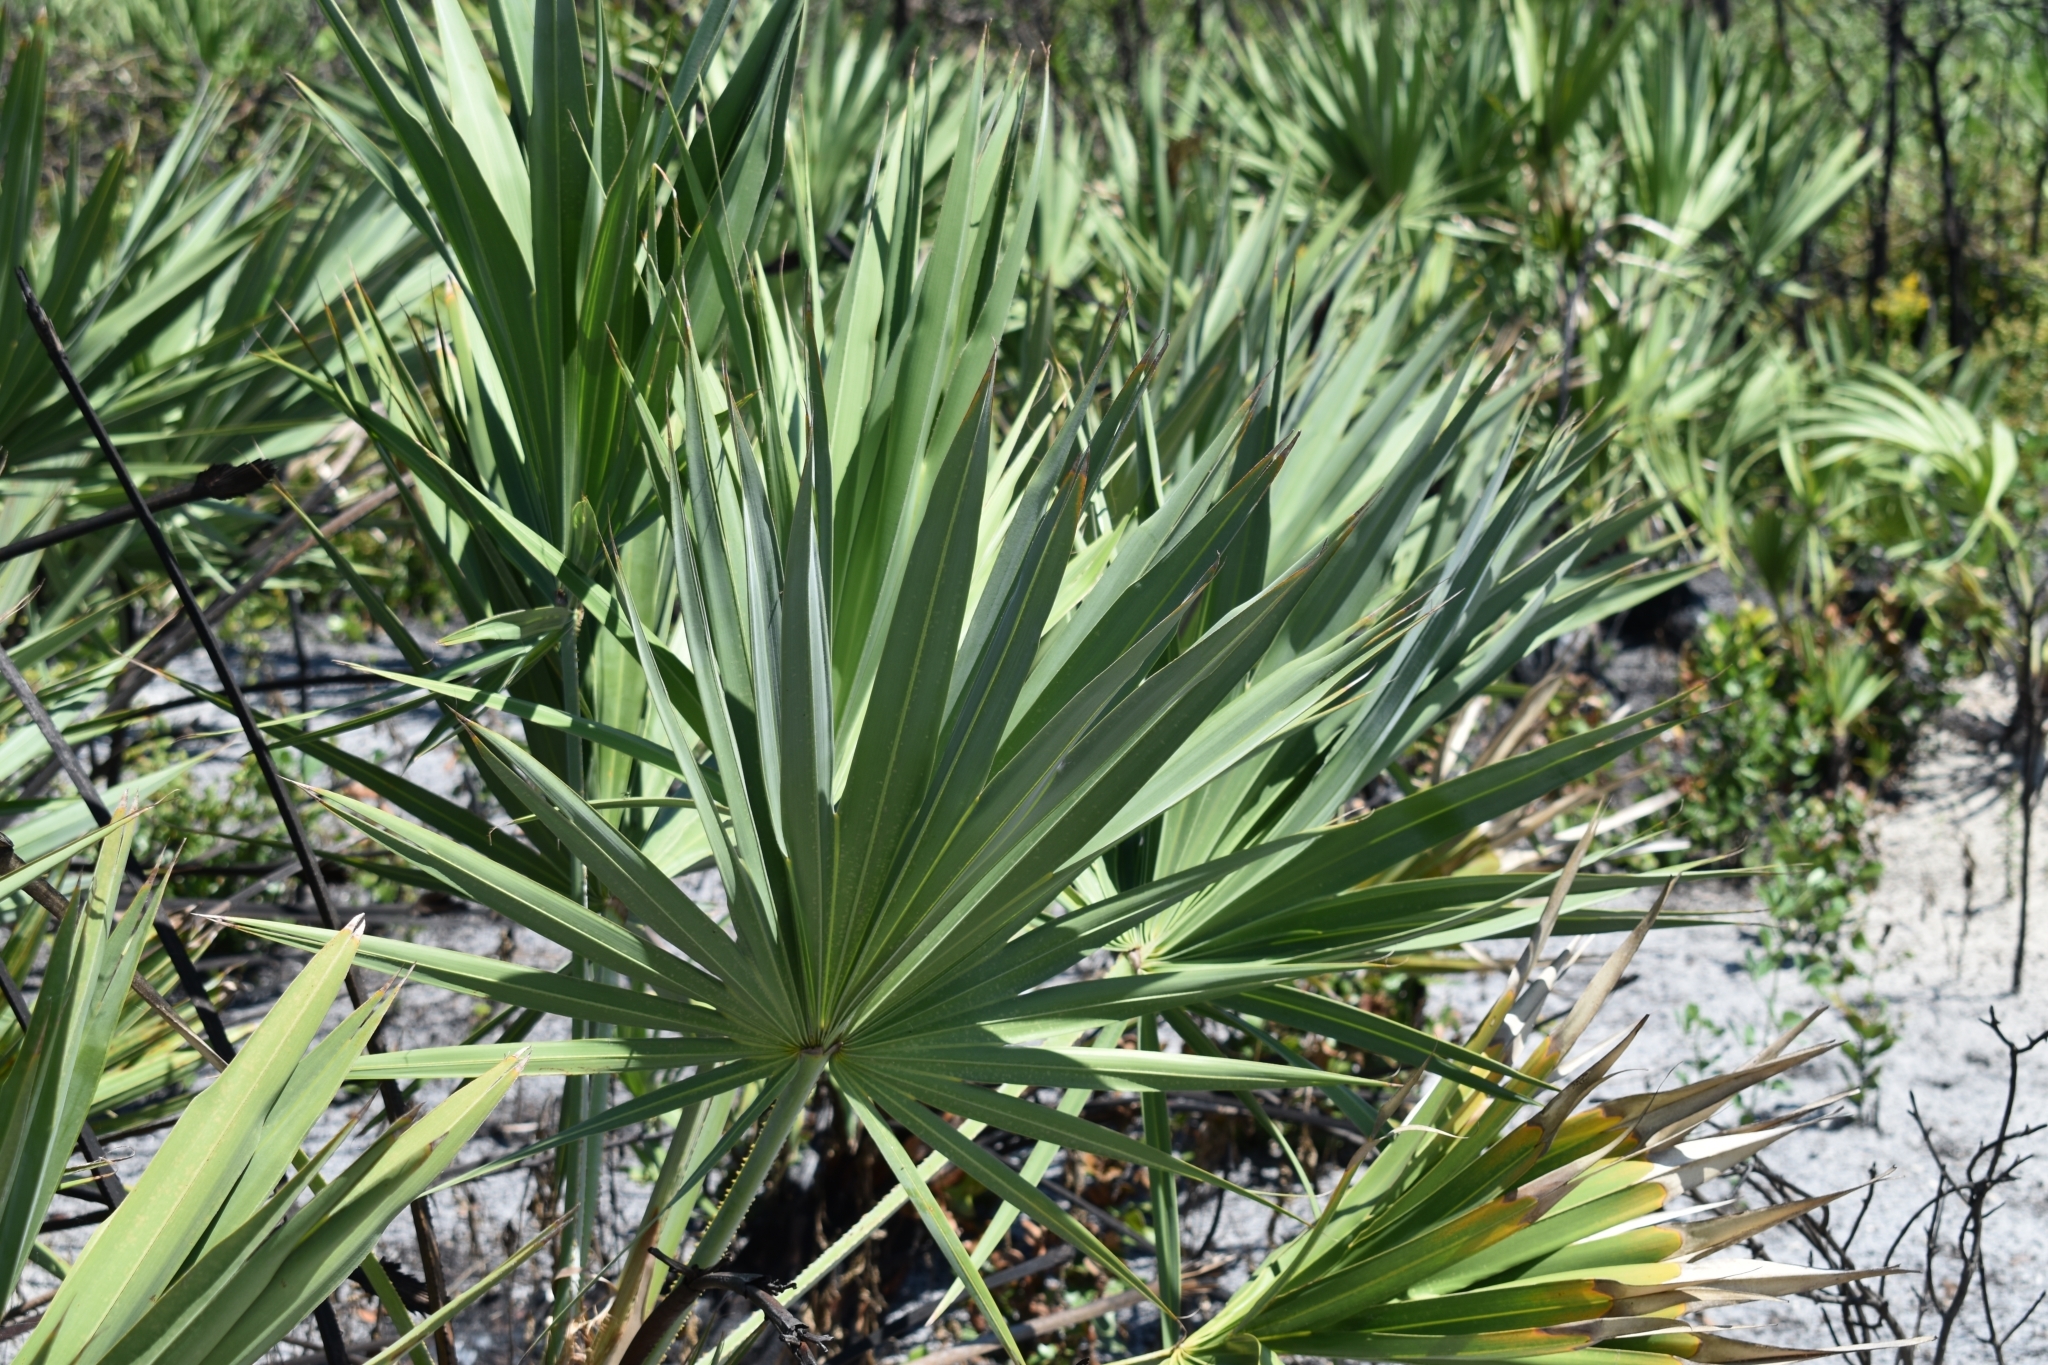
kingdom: Plantae
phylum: Tracheophyta
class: Liliopsida
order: Arecales
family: Arecaceae
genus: Serenoa
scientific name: Serenoa repens
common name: Saw-palmetto
